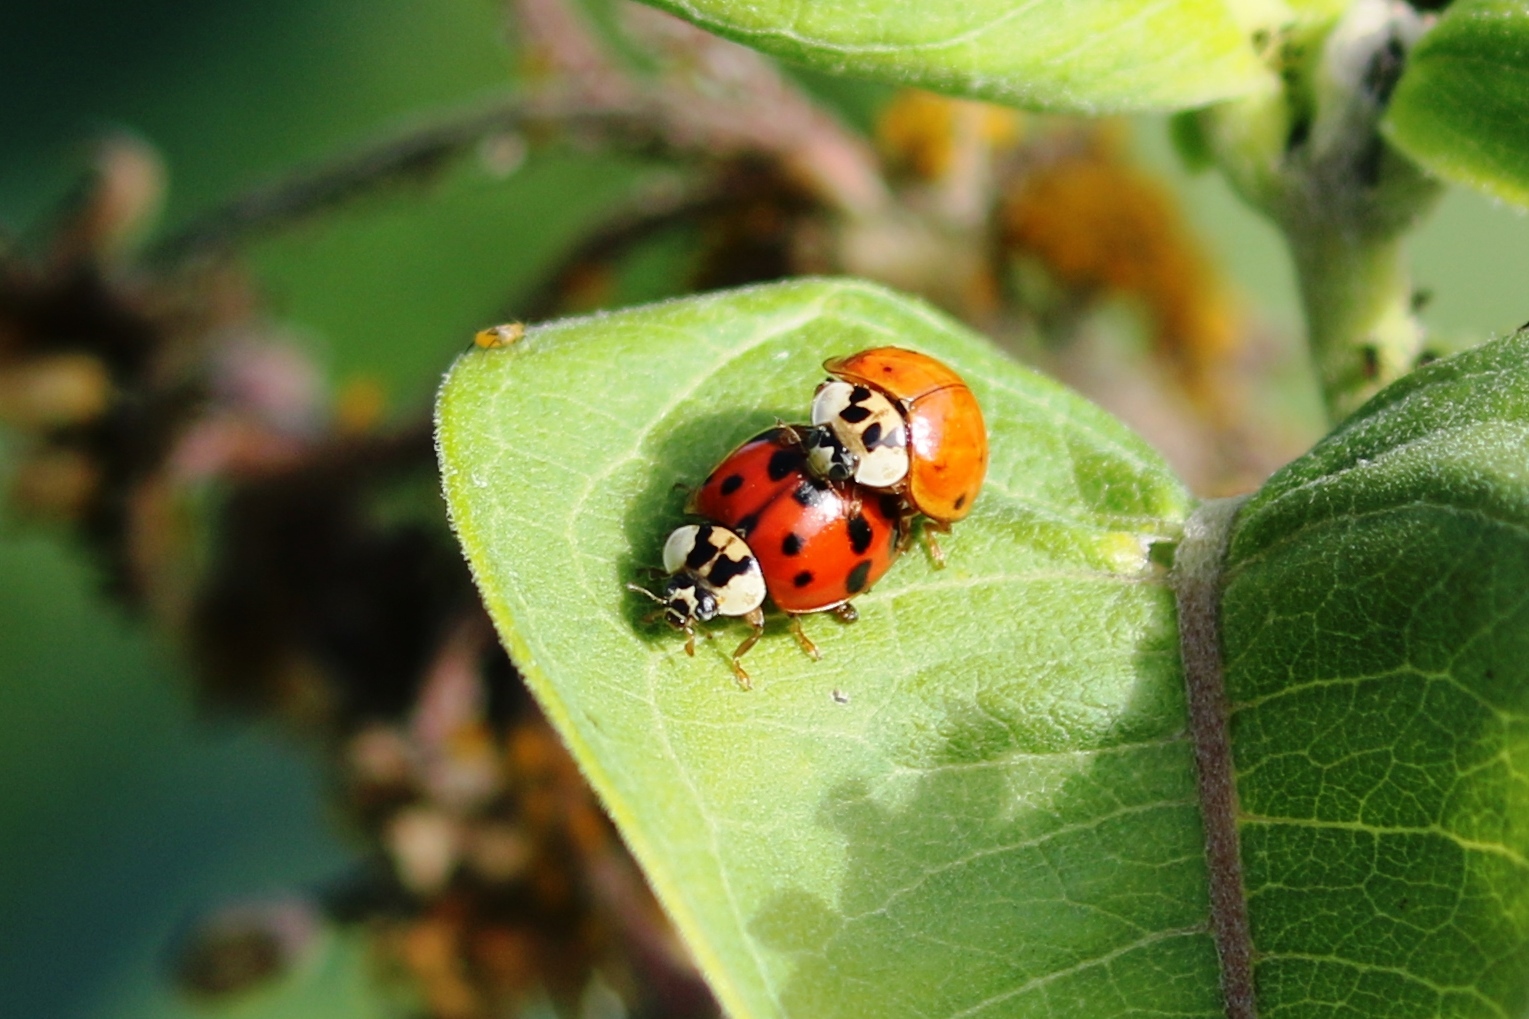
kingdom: Animalia
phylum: Arthropoda
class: Insecta
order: Coleoptera
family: Coccinellidae
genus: Harmonia
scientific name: Harmonia axyridis
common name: Harlequin ladybird
